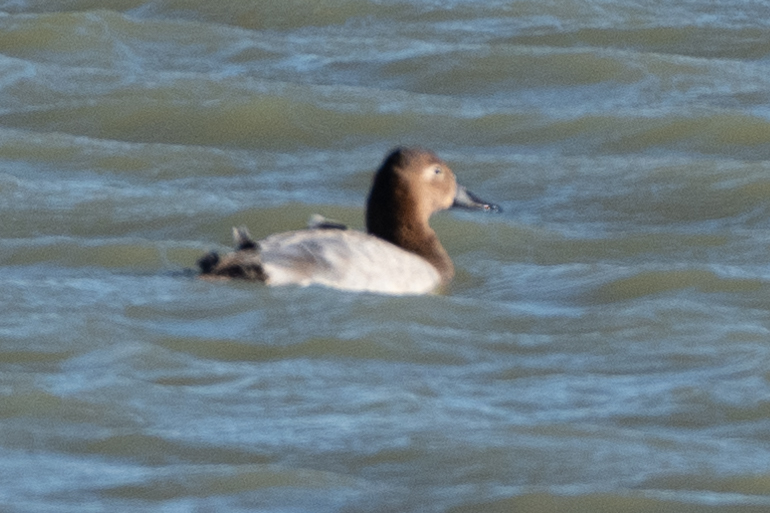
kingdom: Animalia
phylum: Chordata
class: Aves
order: Anseriformes
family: Anatidae
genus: Aythya
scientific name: Aythya valisineria
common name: Canvasback
